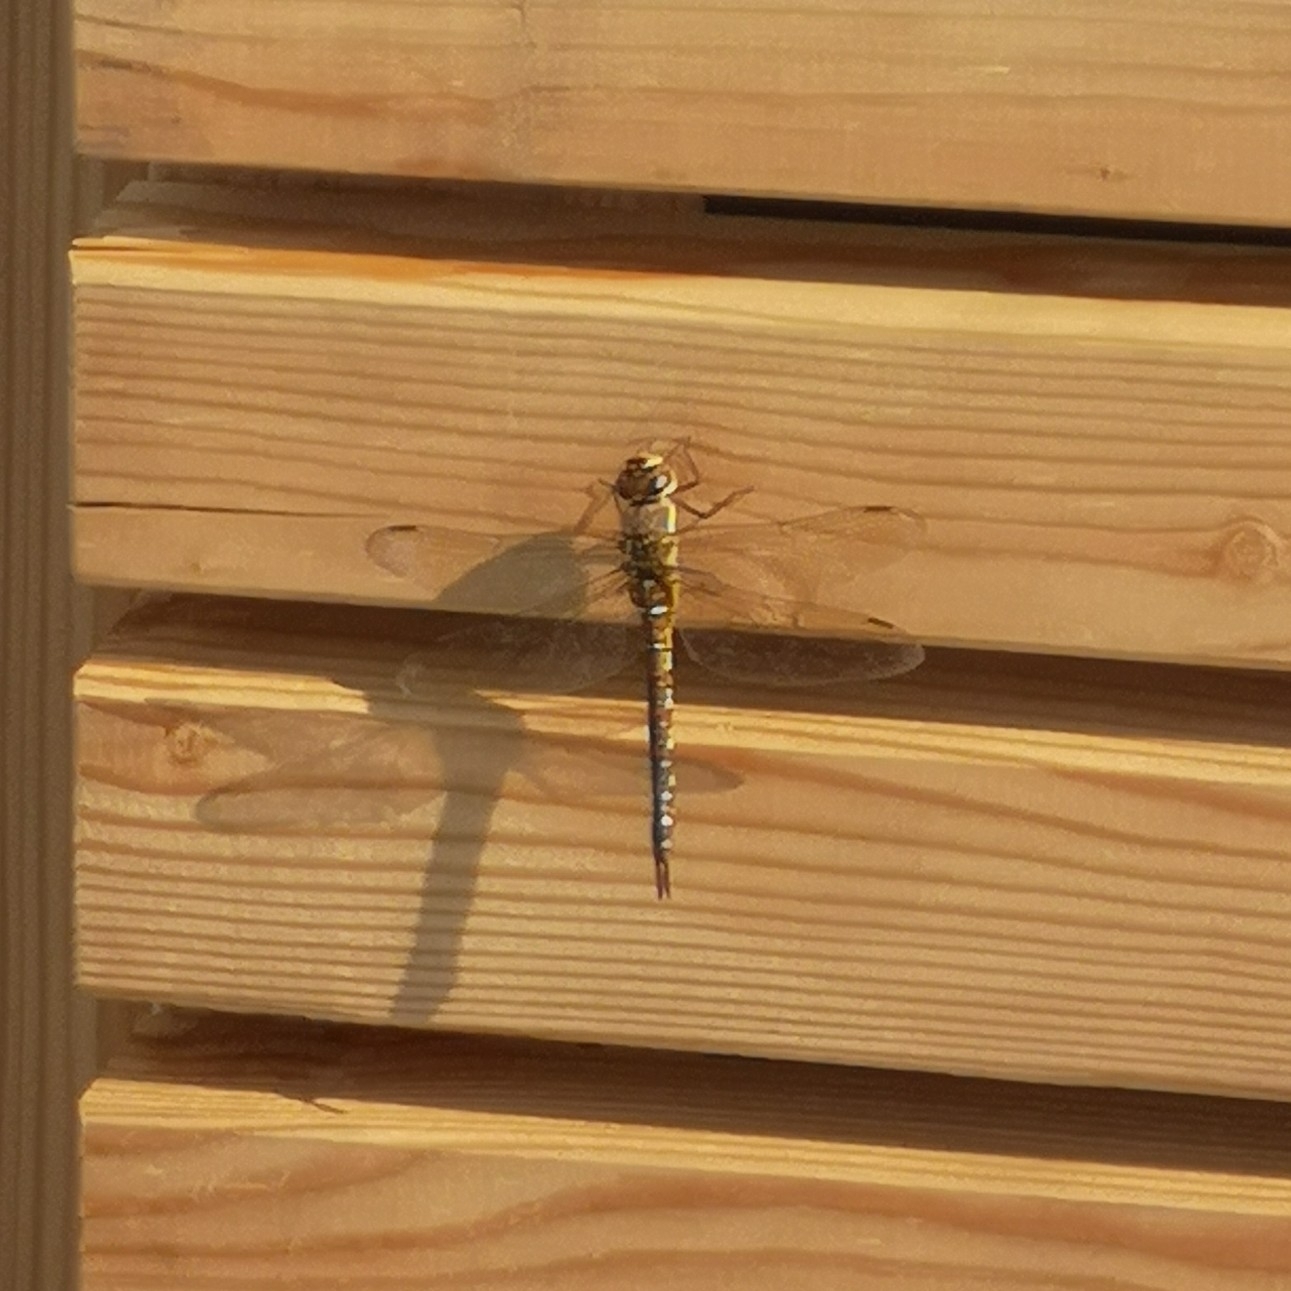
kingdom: Animalia
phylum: Arthropoda
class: Insecta
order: Odonata
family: Aeshnidae
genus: Aeshna
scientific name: Aeshna mixta
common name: Migrant hawker
